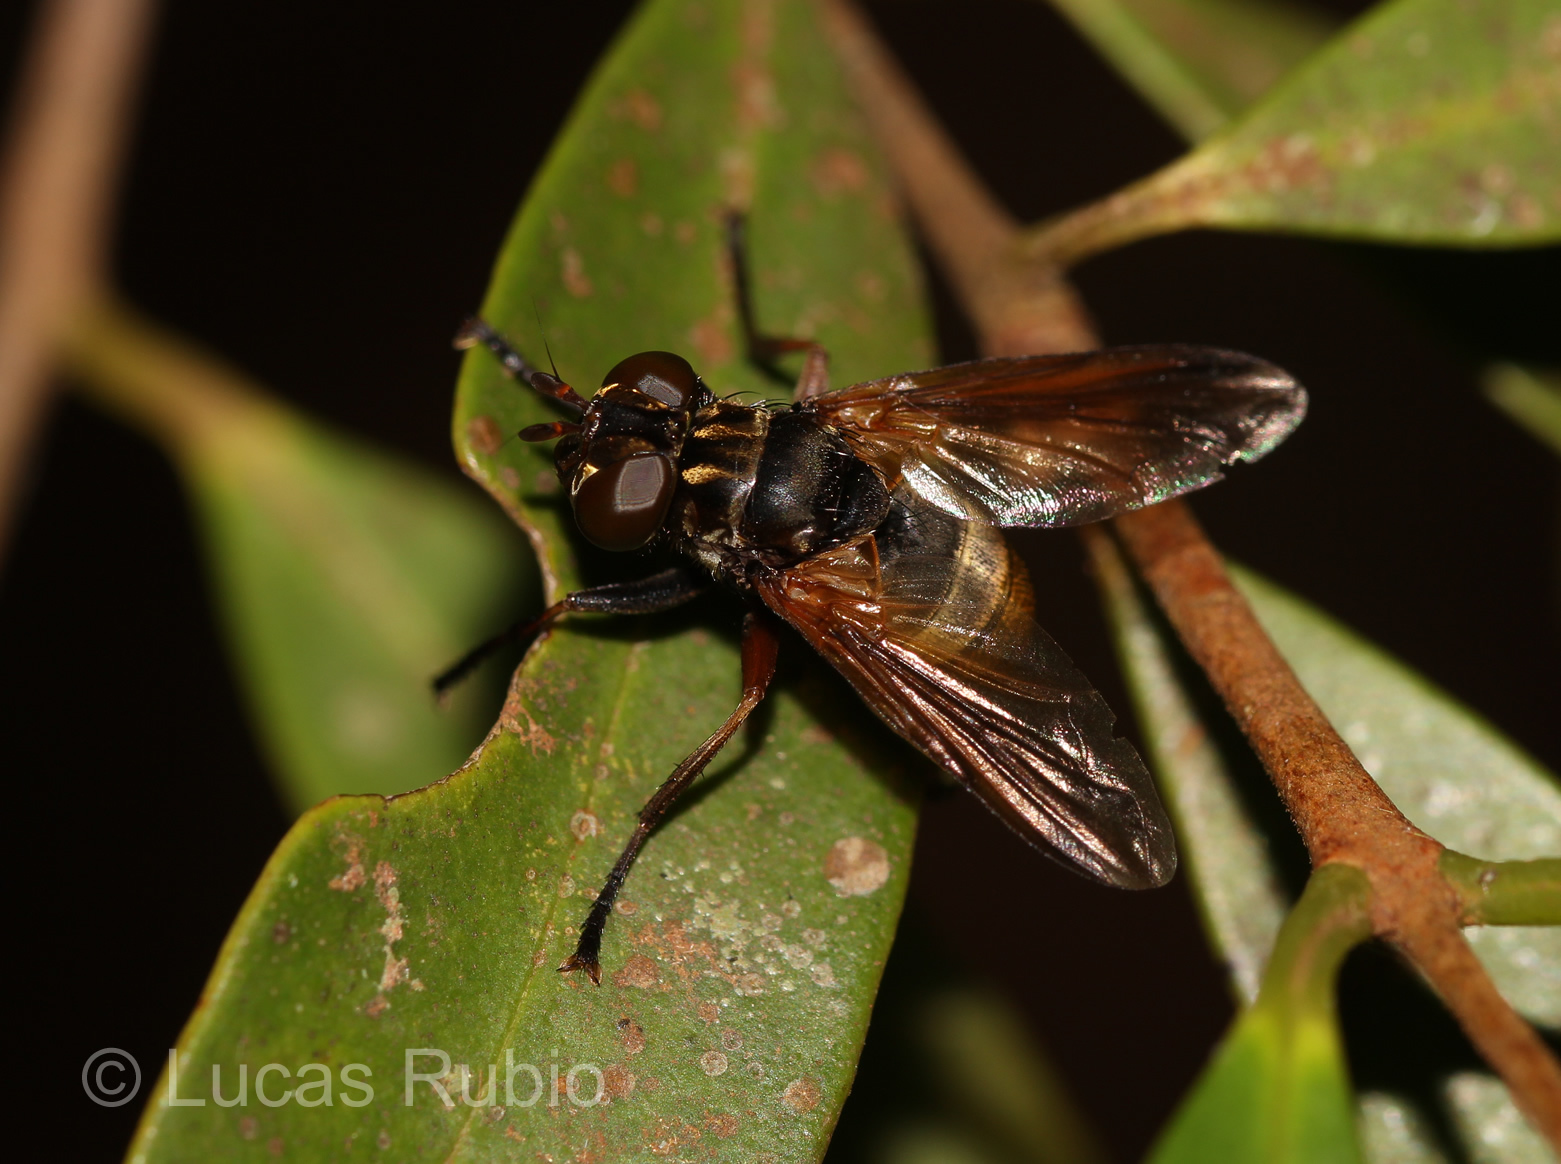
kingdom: Animalia
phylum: Arthropoda
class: Insecta
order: Diptera
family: Tachinidae
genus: Trichopoda
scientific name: Trichopoda sabroskyi
